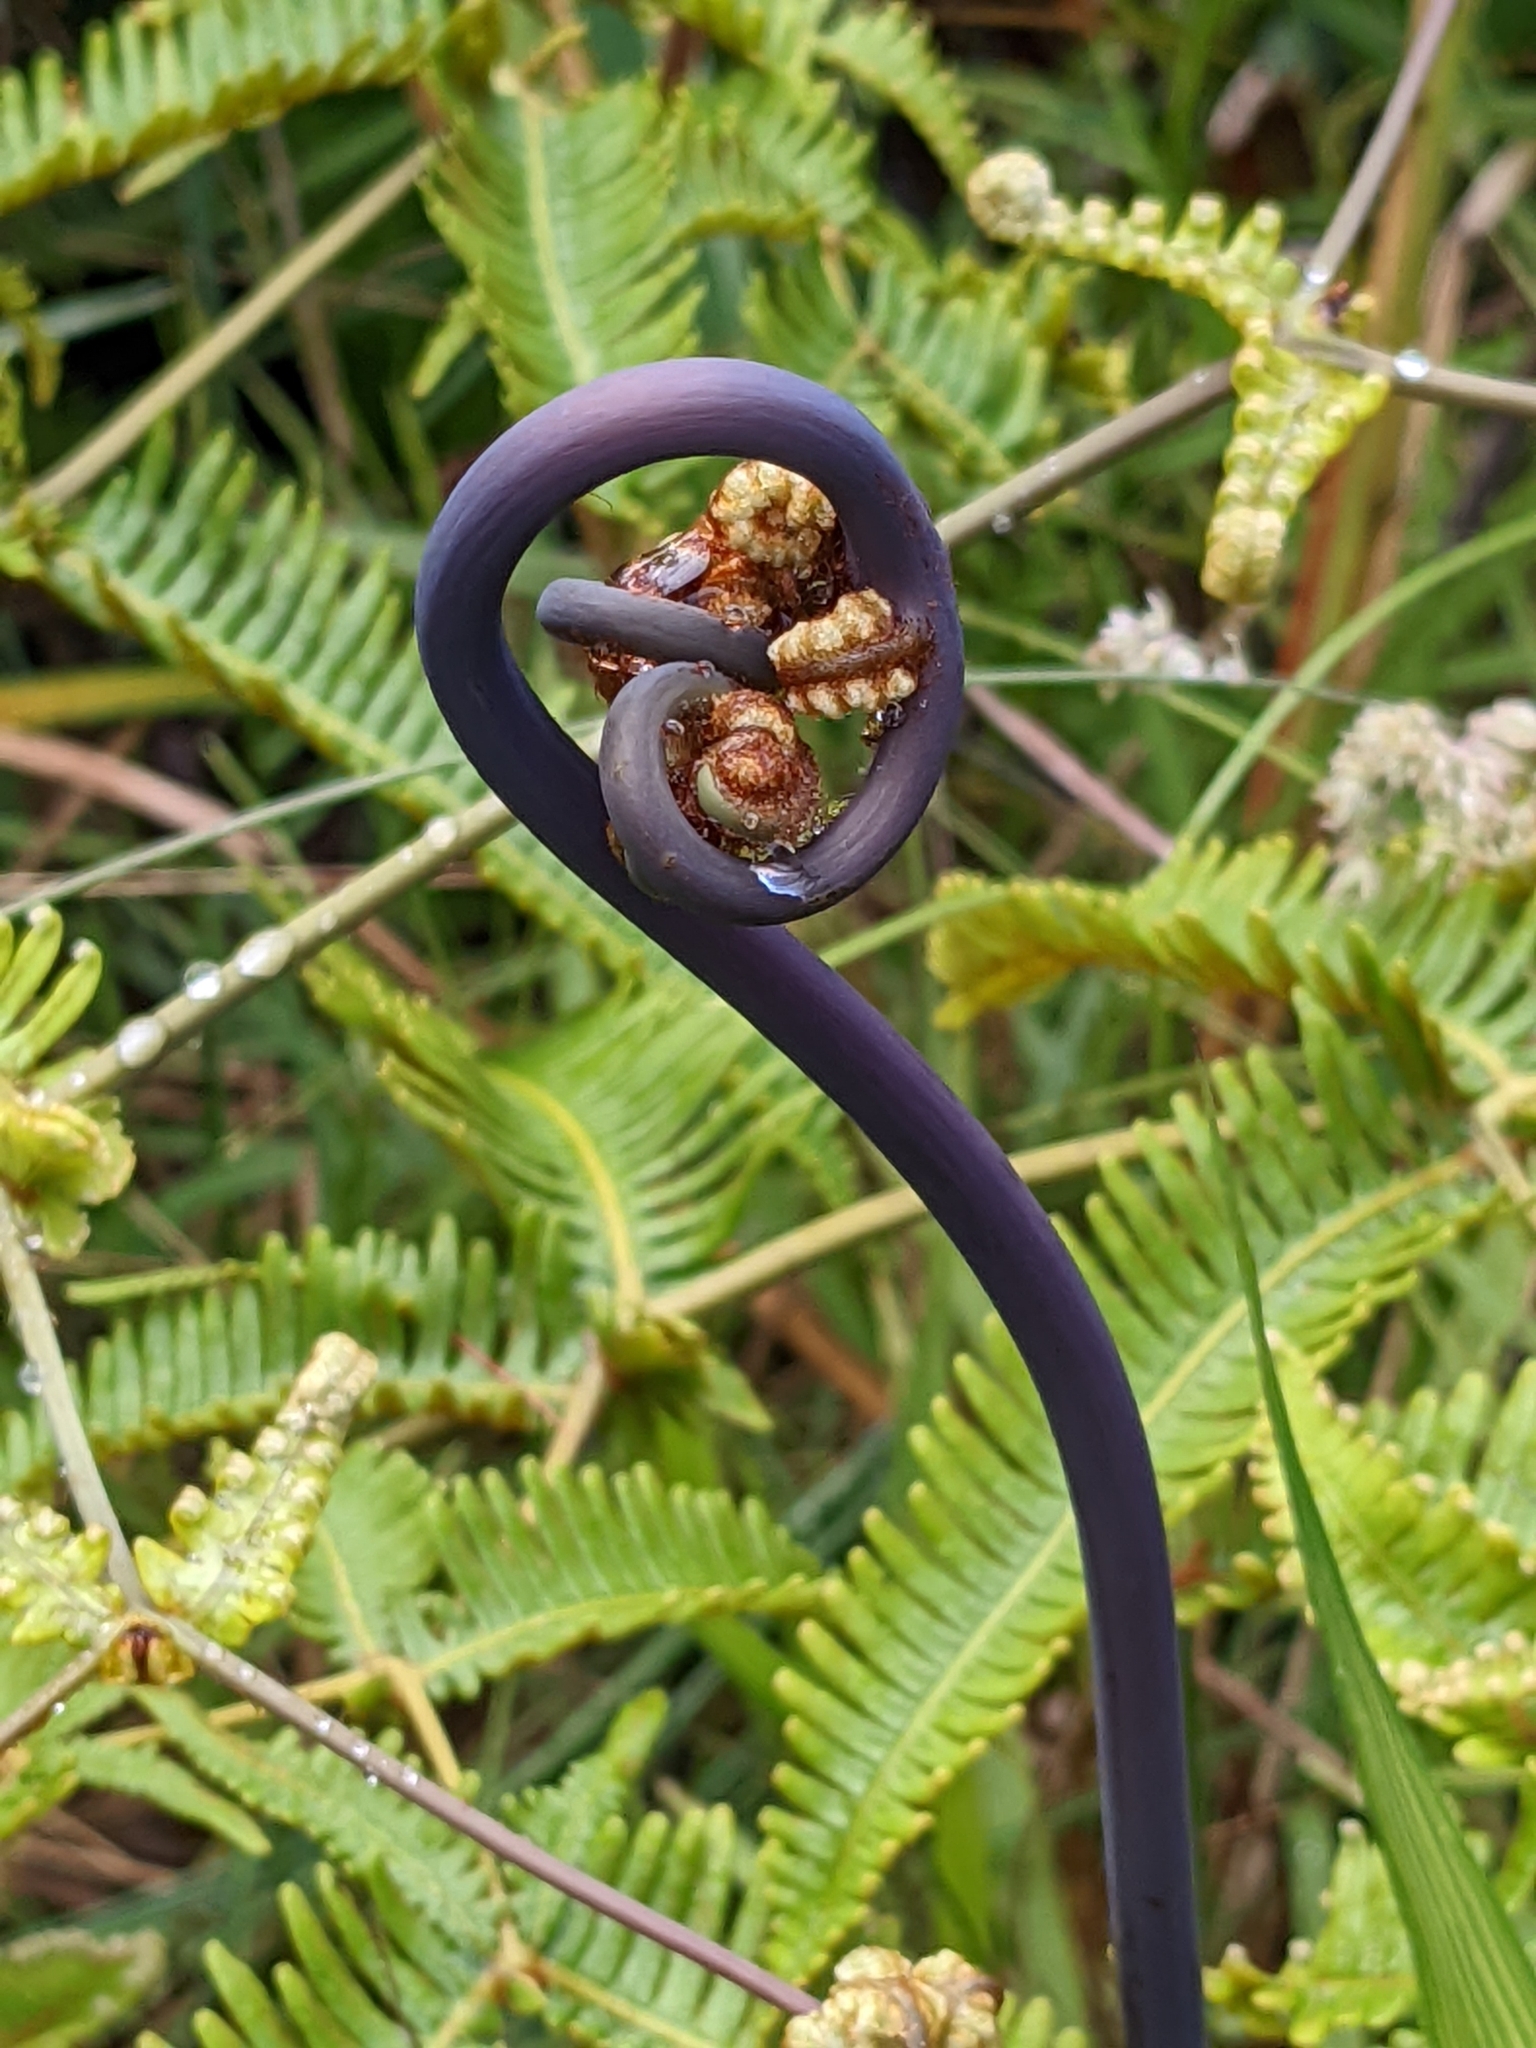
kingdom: Plantae
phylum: Tracheophyta
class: Polypodiopsida
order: Gleicheniales
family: Gleicheniaceae
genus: Dicranopteris
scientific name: Dicranopteris linearis
